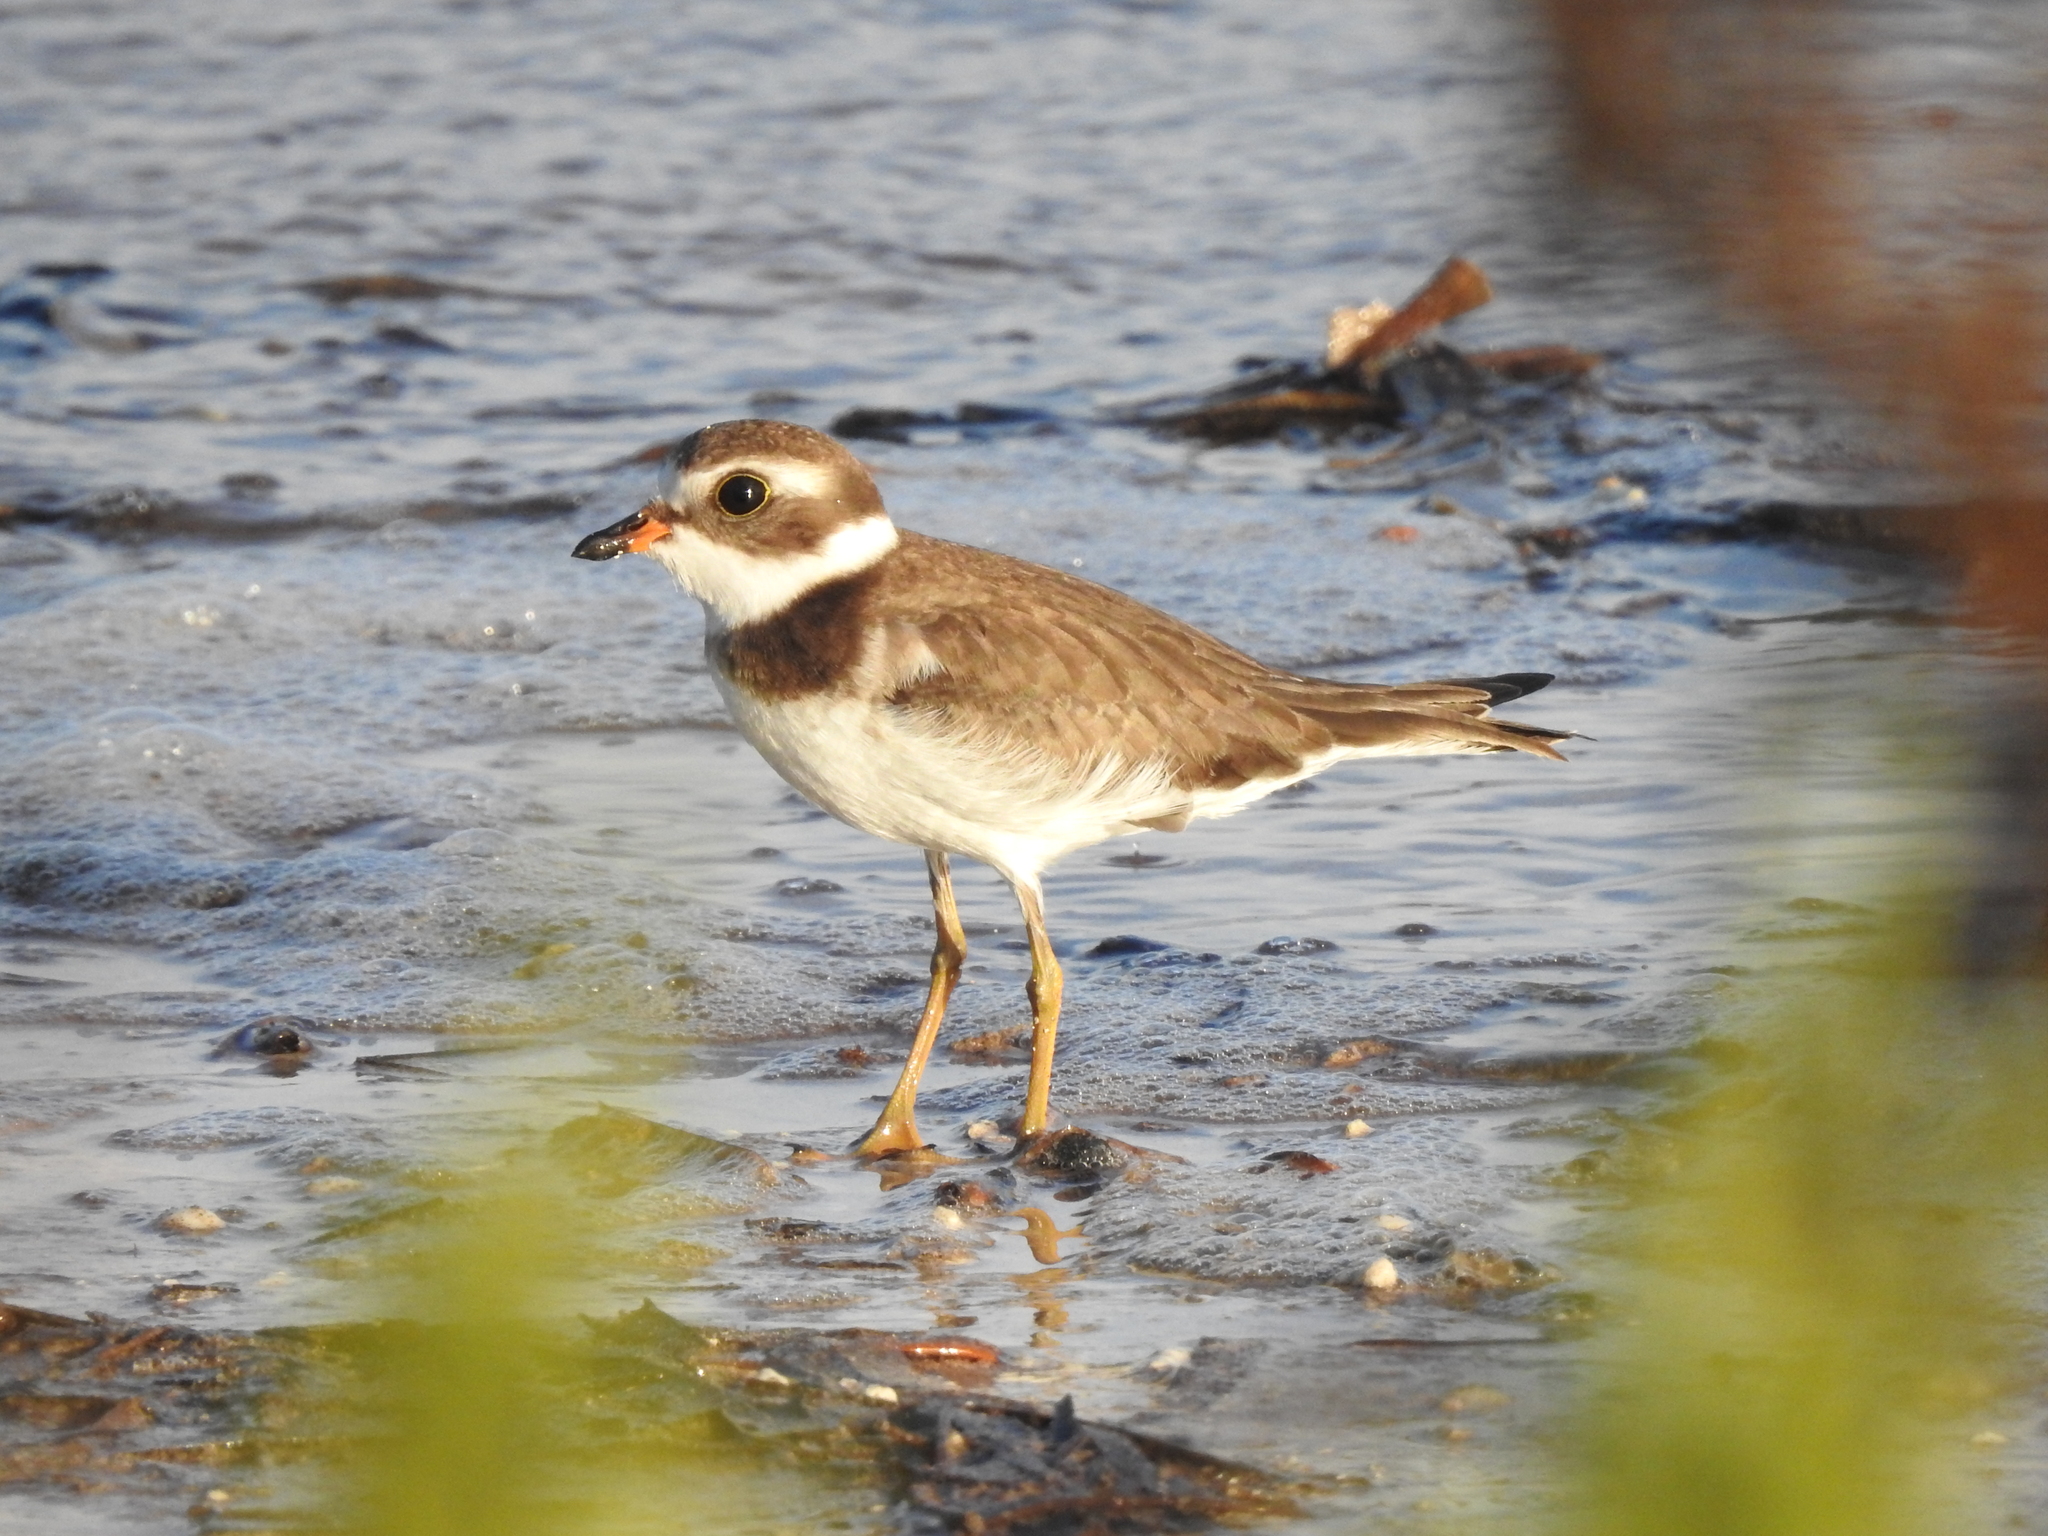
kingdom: Animalia
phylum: Chordata
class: Aves
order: Charadriiformes
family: Charadriidae
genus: Charadrius
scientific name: Charadrius semipalmatus
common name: Semipalmated plover
